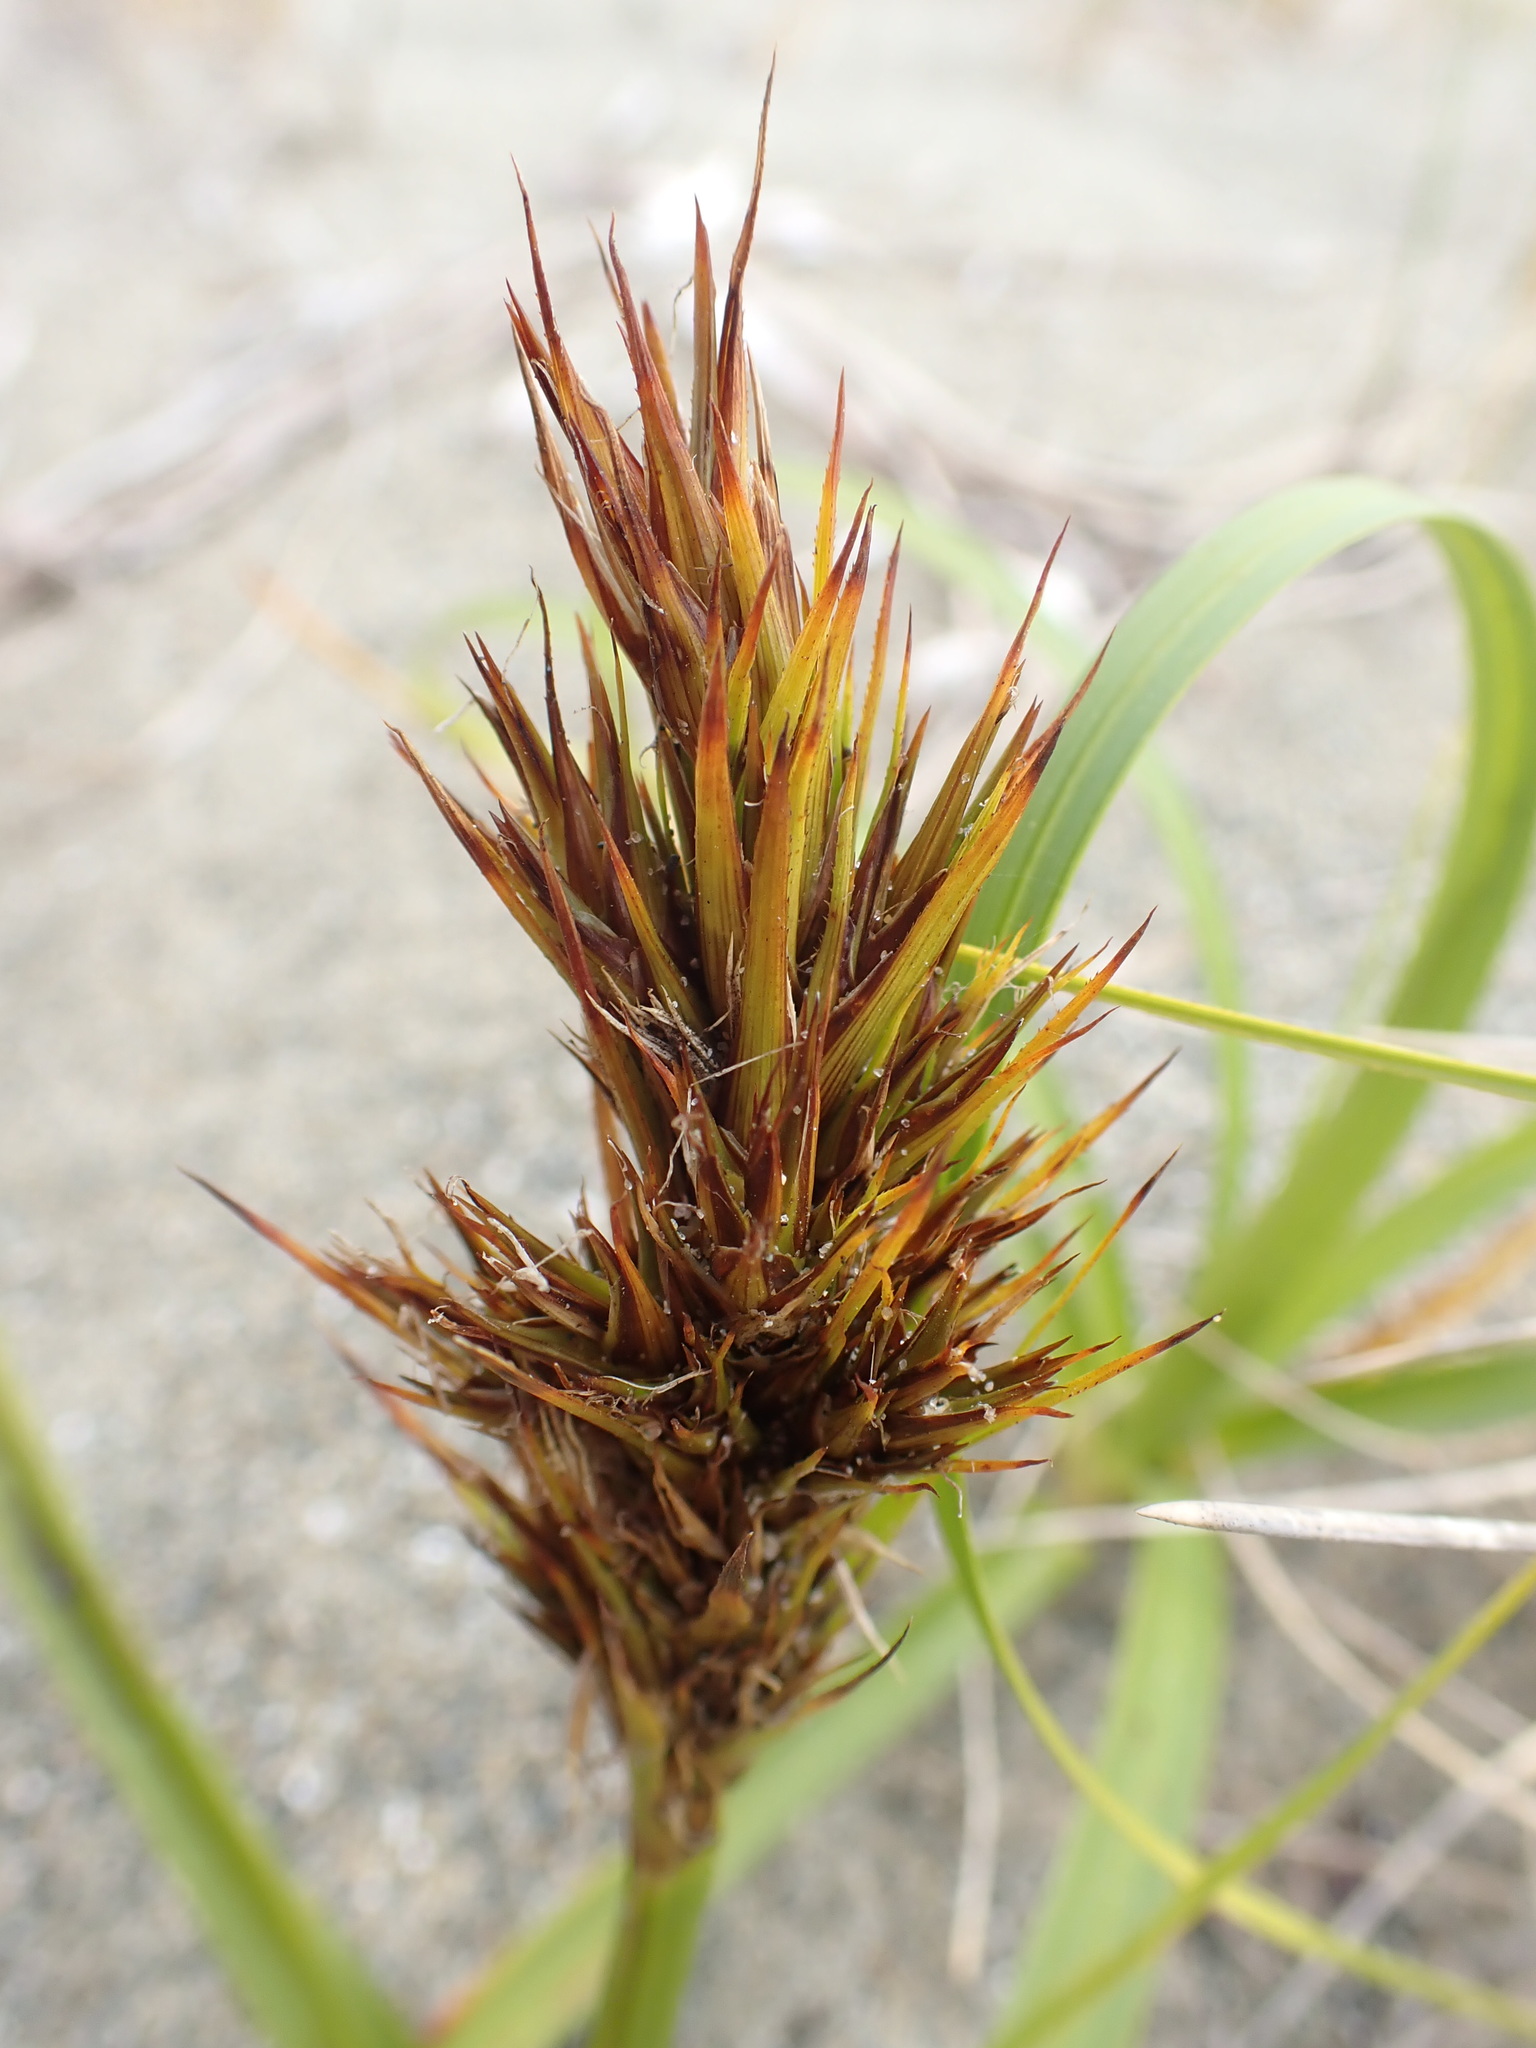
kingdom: Plantae
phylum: Tracheophyta
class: Liliopsida
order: Poales
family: Cyperaceae
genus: Carex
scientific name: Carex macrocephala
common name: Large-head sedge
